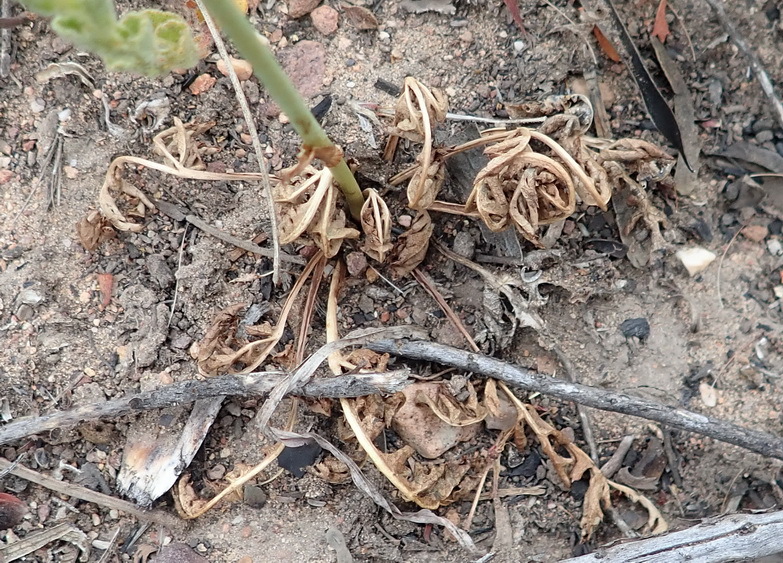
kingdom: Plantae
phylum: Tracheophyta
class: Magnoliopsida
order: Apiales
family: Apiaceae
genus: Lichtensteinia
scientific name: Lichtensteinia interrupta
